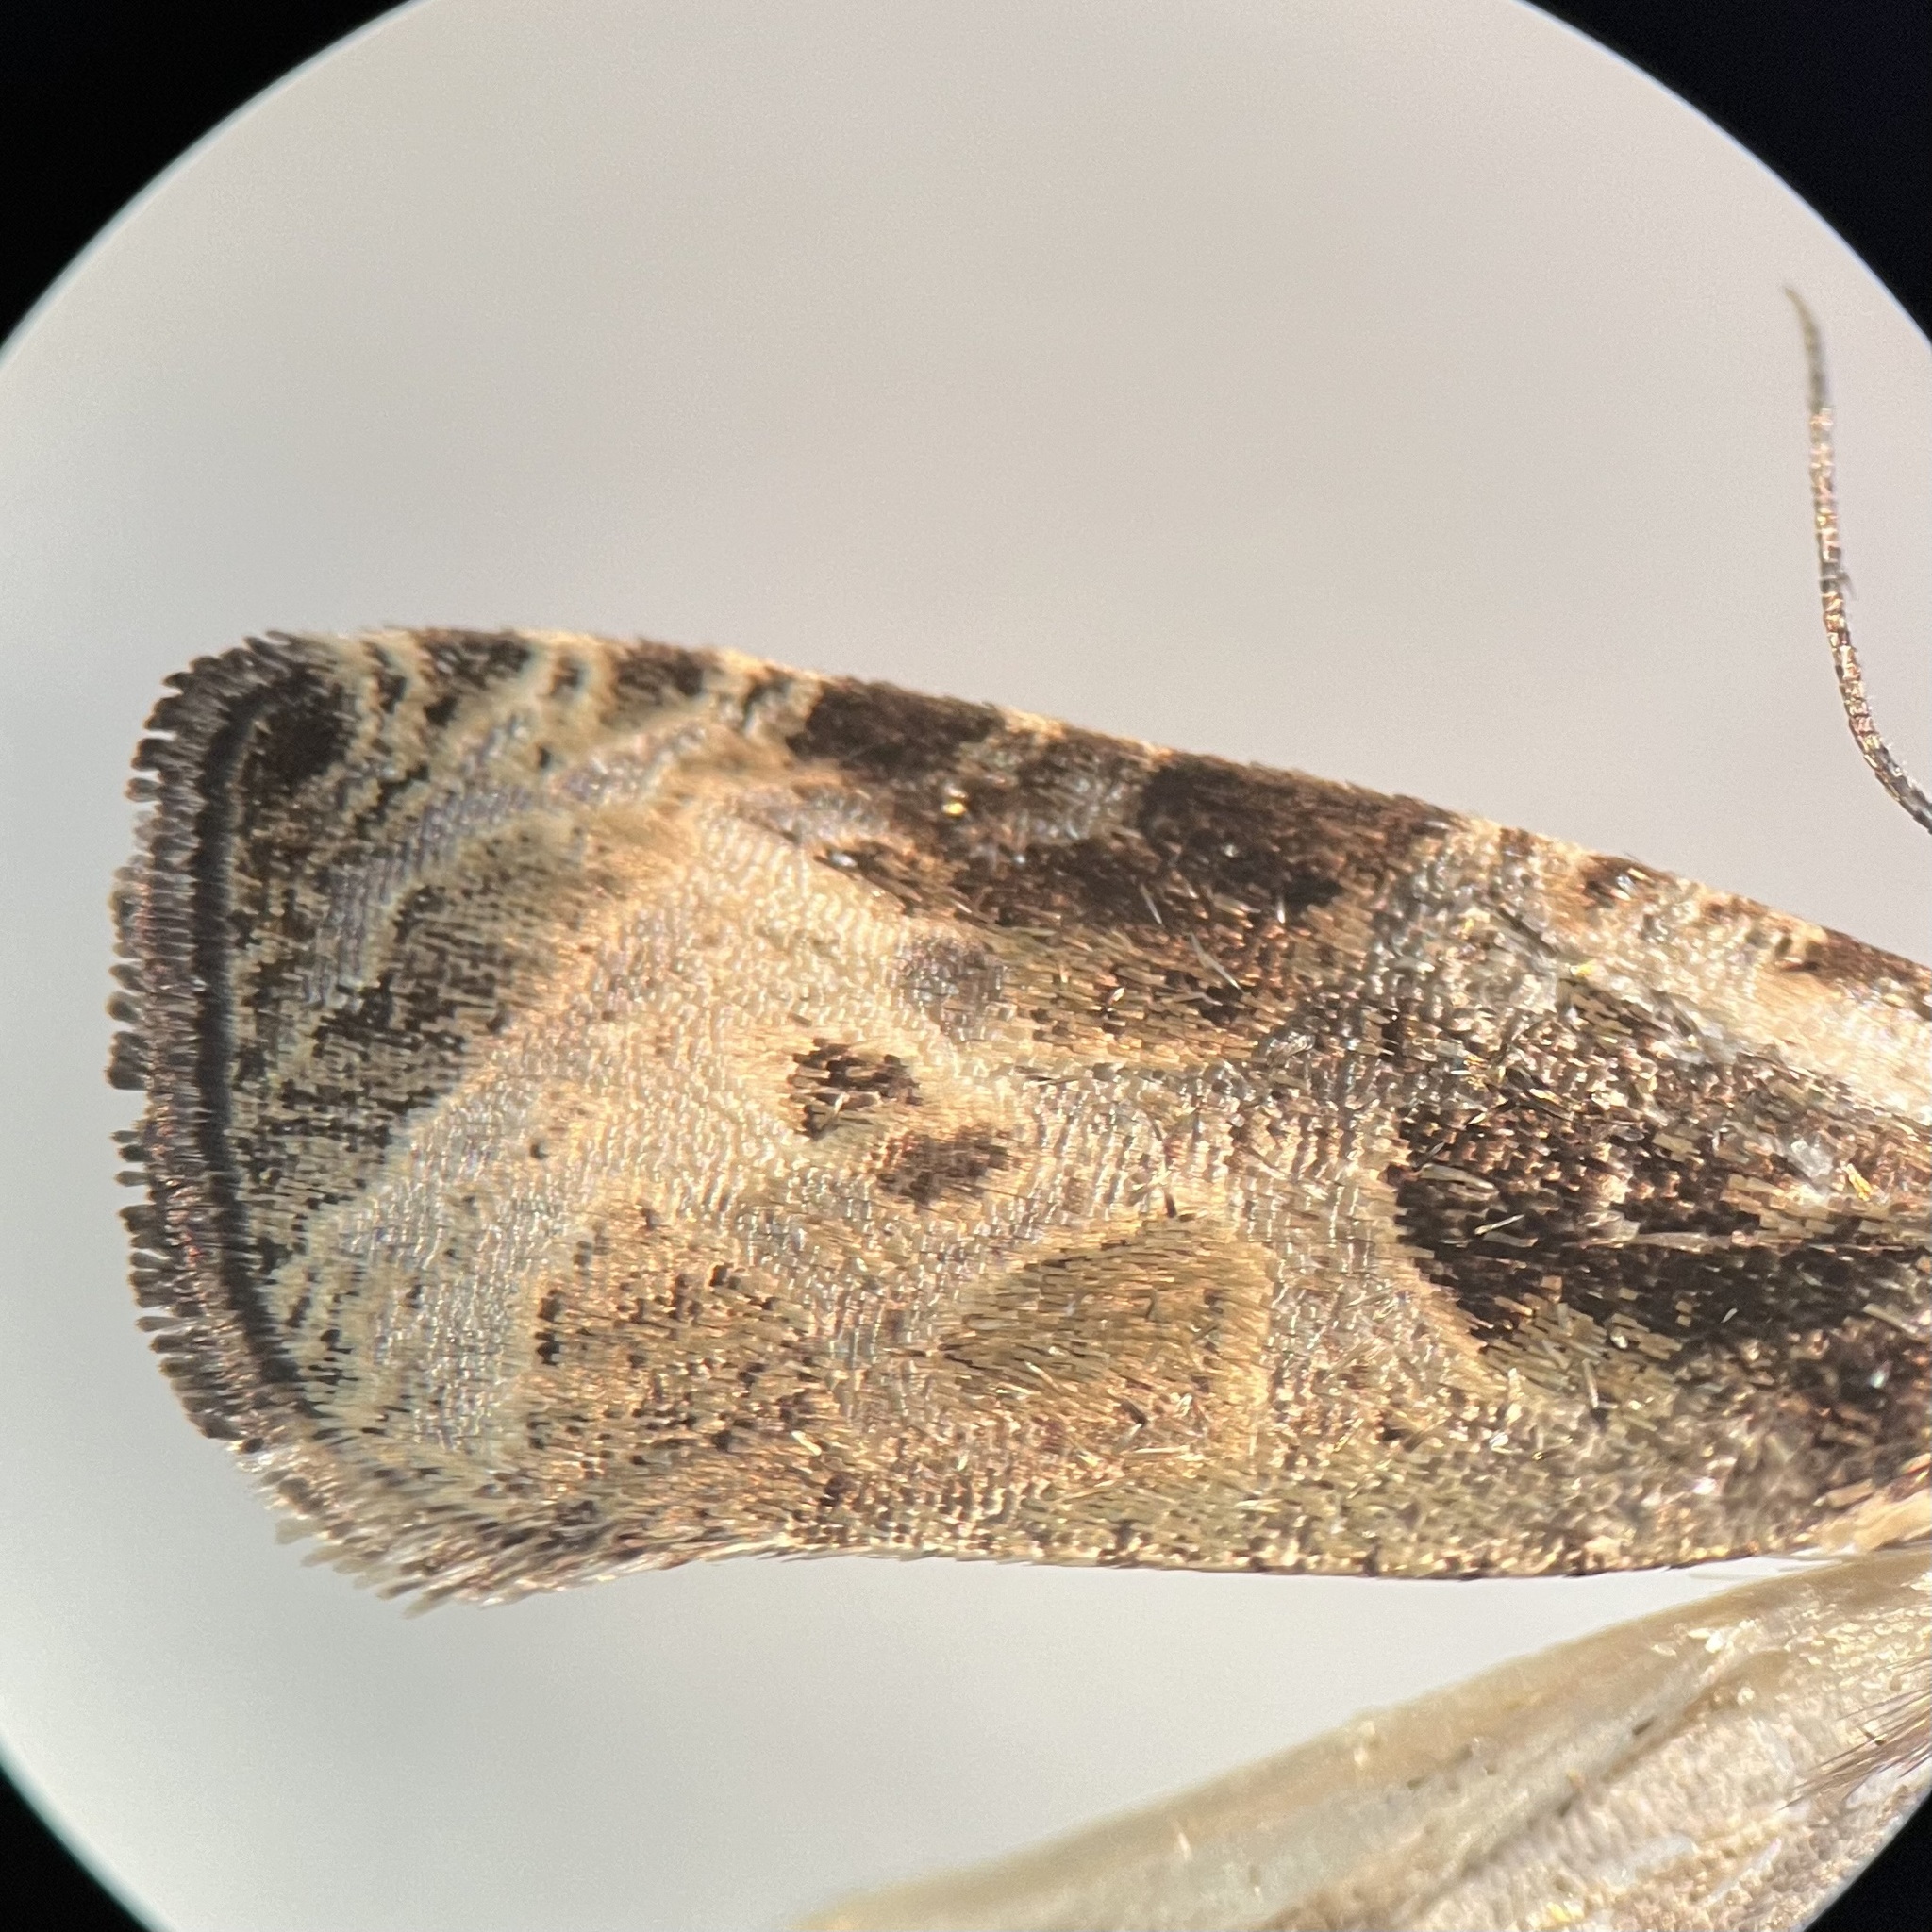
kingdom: Animalia
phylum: Arthropoda
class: Insecta
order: Lepidoptera
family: Tortricidae
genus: Olethreutes
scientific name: Olethreutes connectum
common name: Bunchberry leaffolder moth
